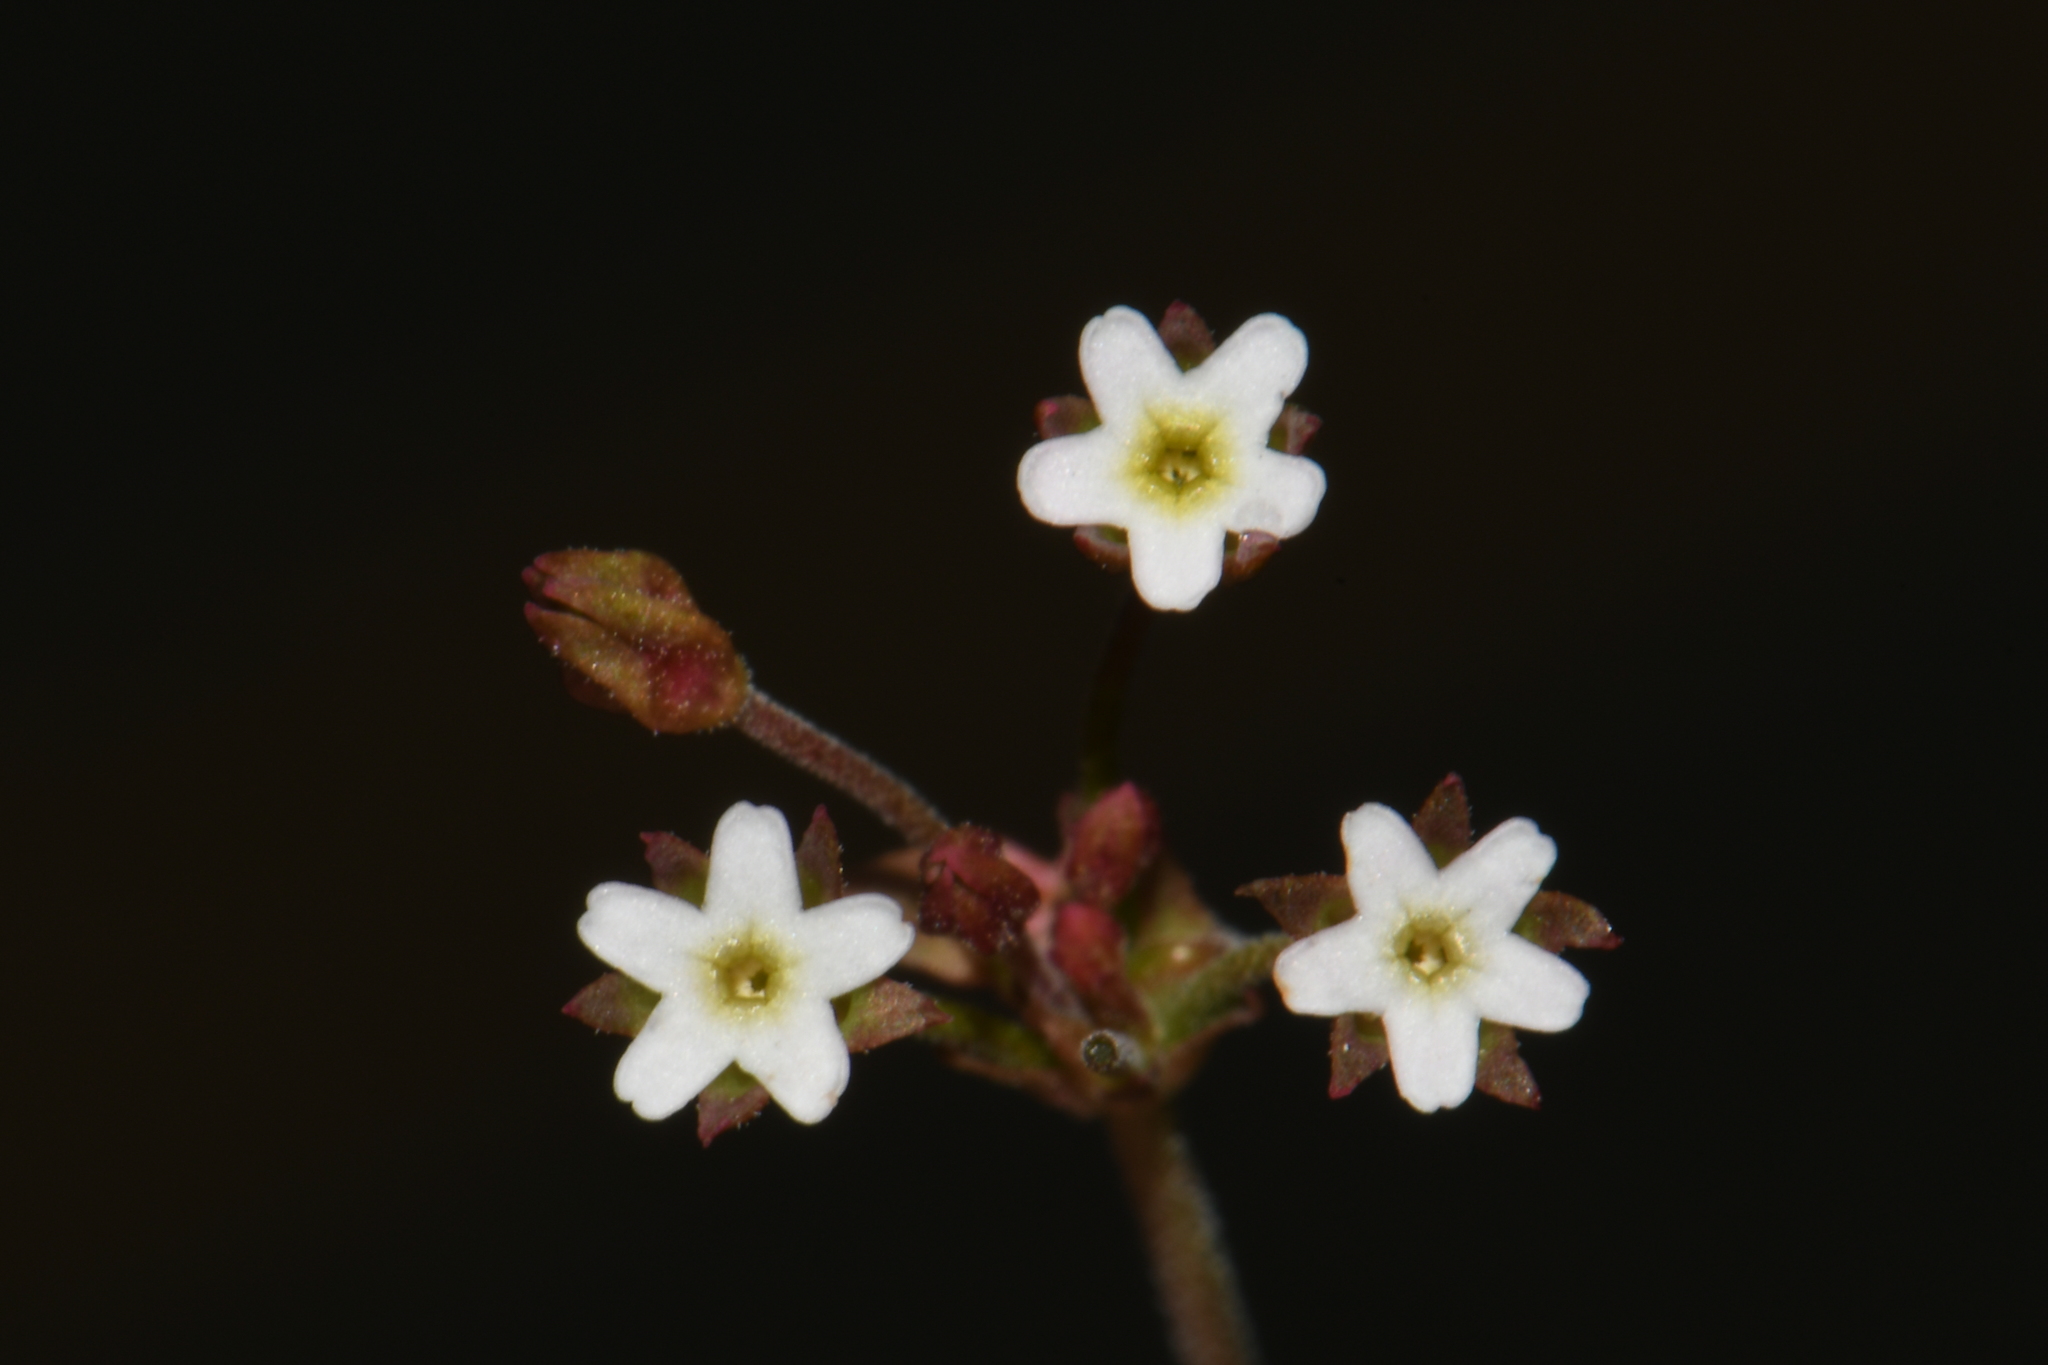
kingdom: Plantae
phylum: Tracheophyta
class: Magnoliopsida
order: Ericales
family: Primulaceae
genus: Androsace
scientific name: Androsace septentrionalis
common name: Hairy northern fairy-candelabra
